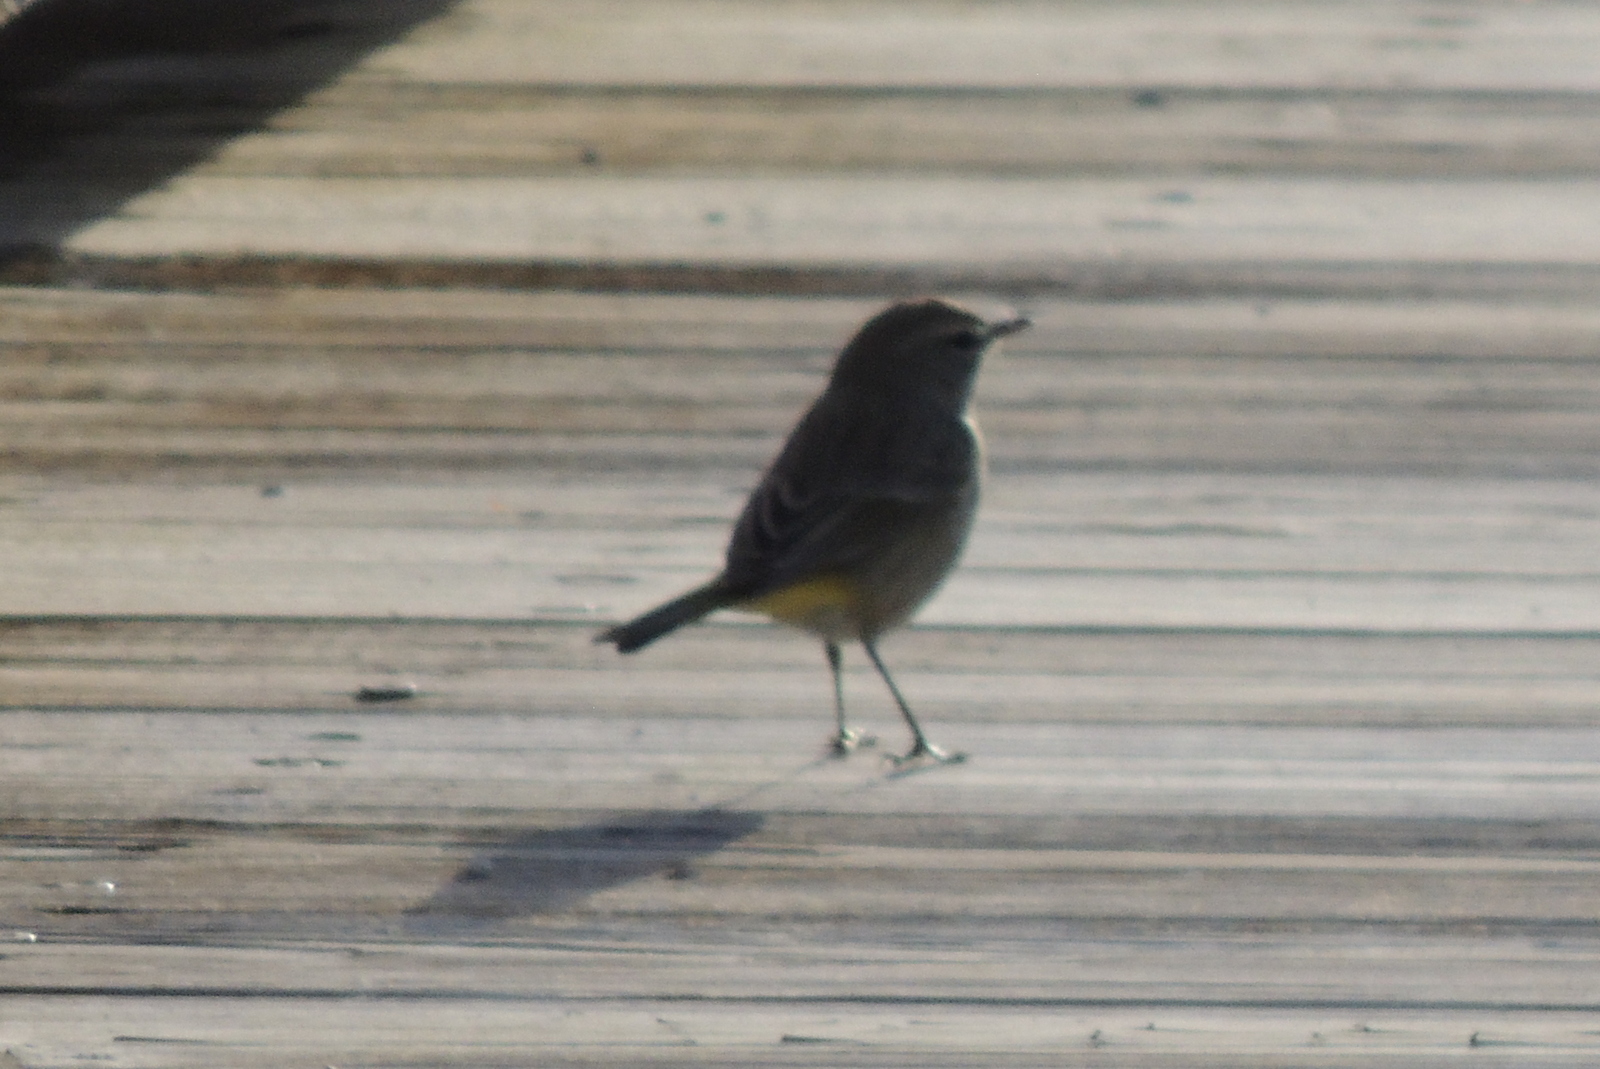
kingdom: Animalia
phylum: Chordata
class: Aves
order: Passeriformes
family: Parulidae
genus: Setophaga
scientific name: Setophaga palmarum
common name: Palm warbler
